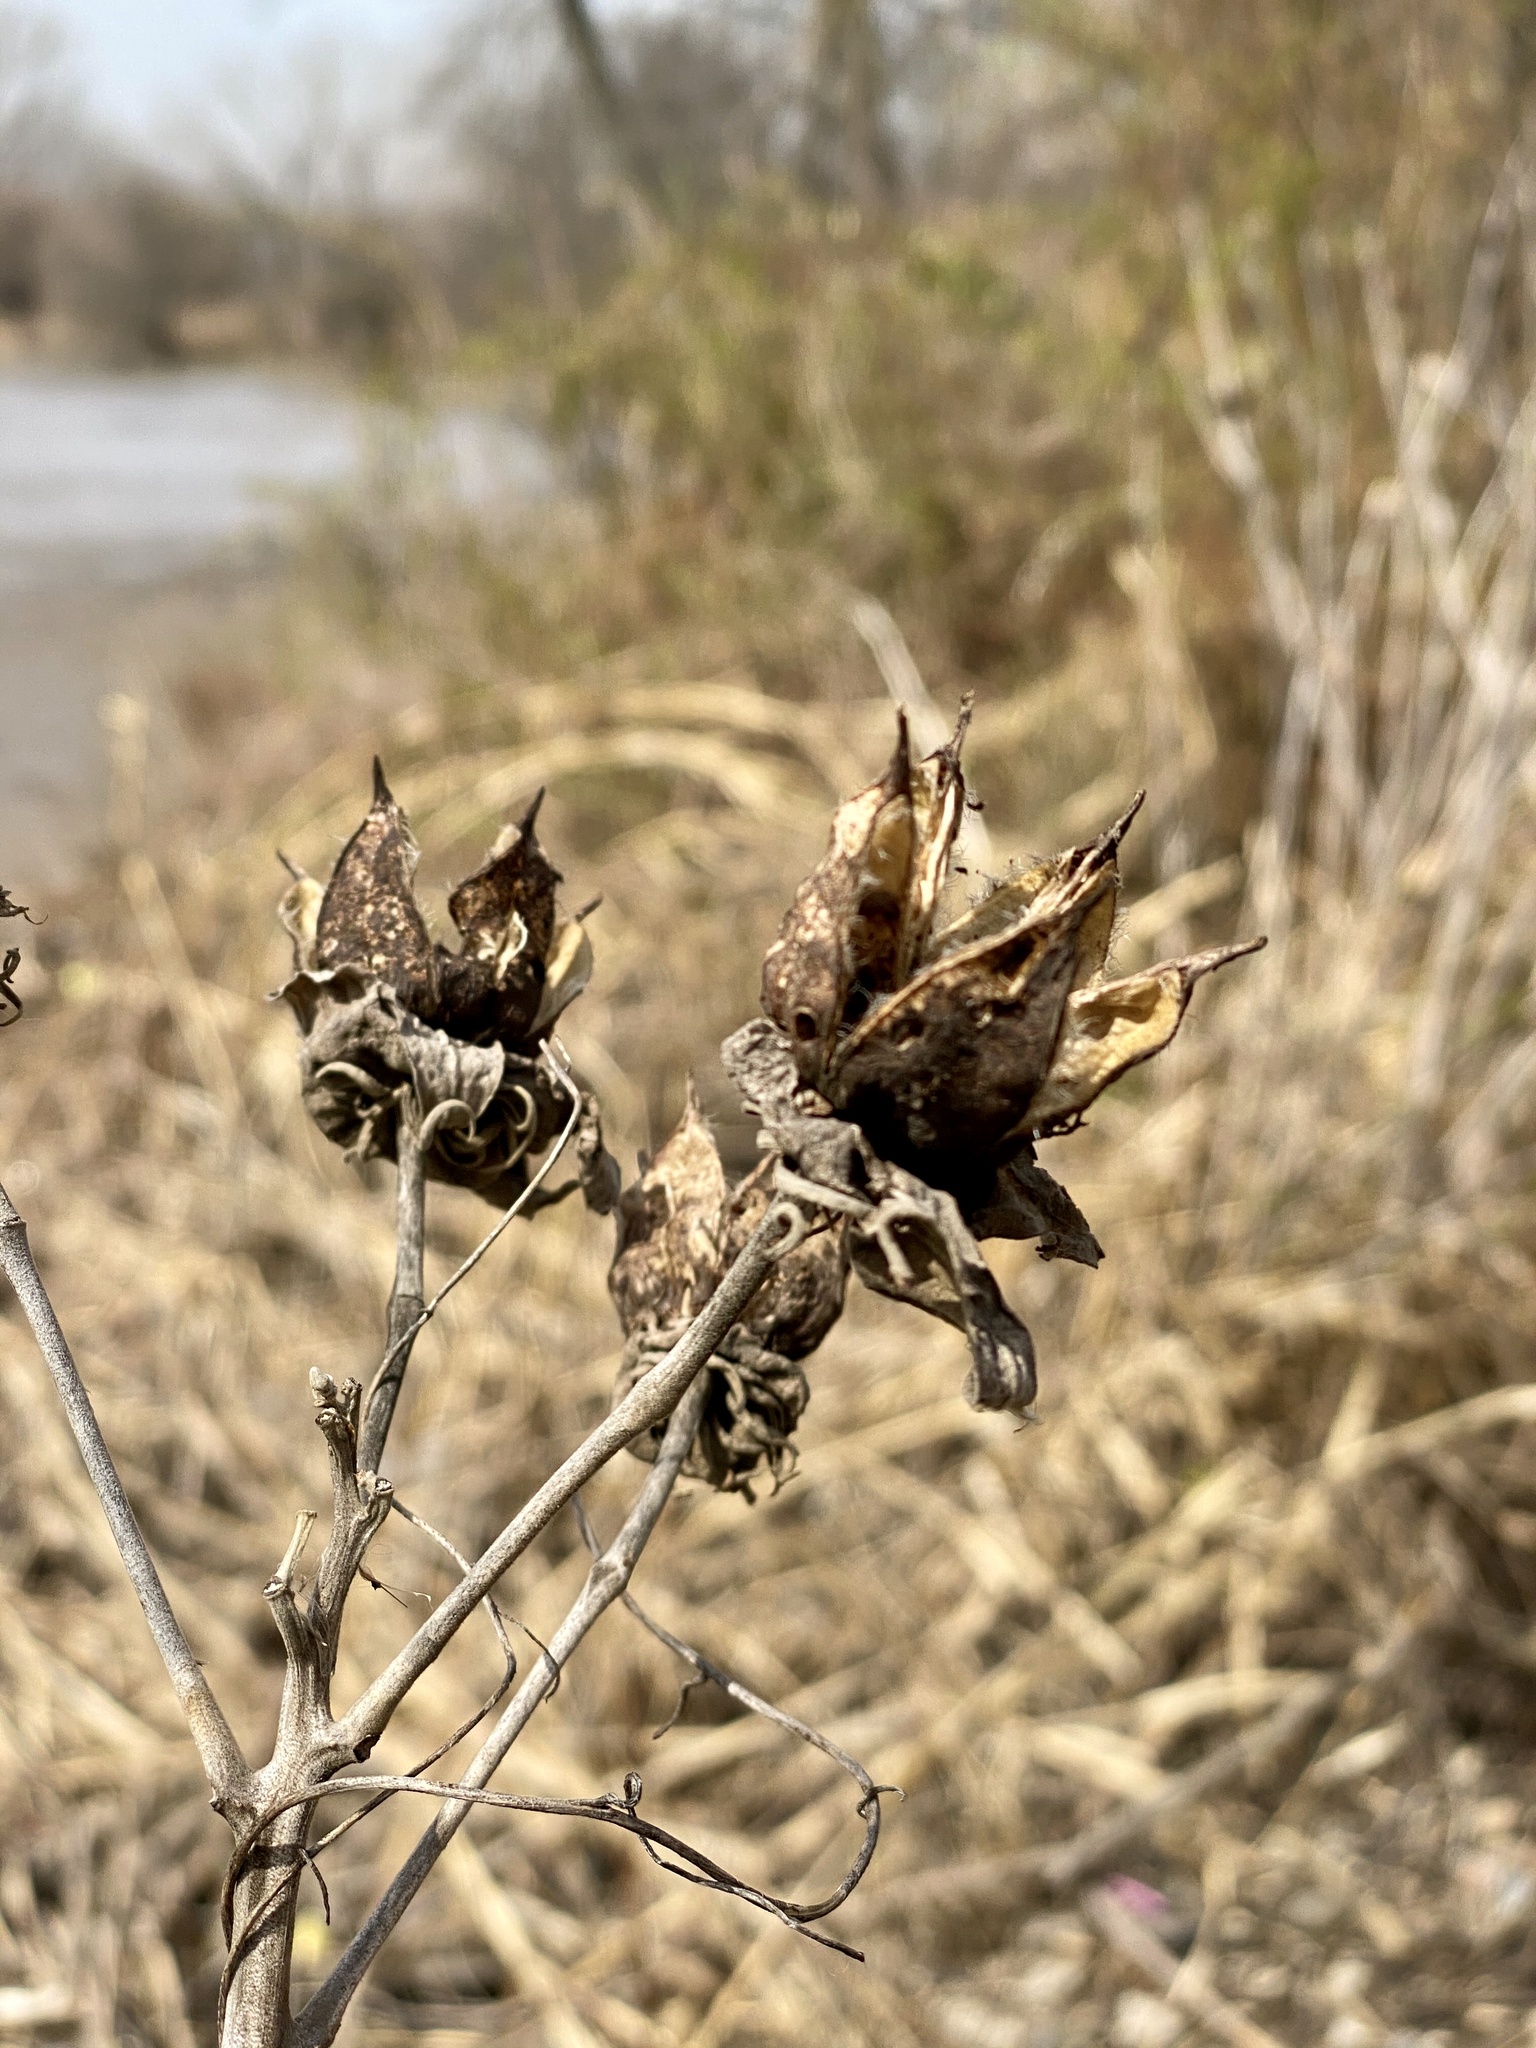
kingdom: Plantae
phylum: Tracheophyta
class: Magnoliopsida
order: Malvales
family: Malvaceae
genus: Hibiscus
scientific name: Hibiscus moscheutos
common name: Common rose-mallow
